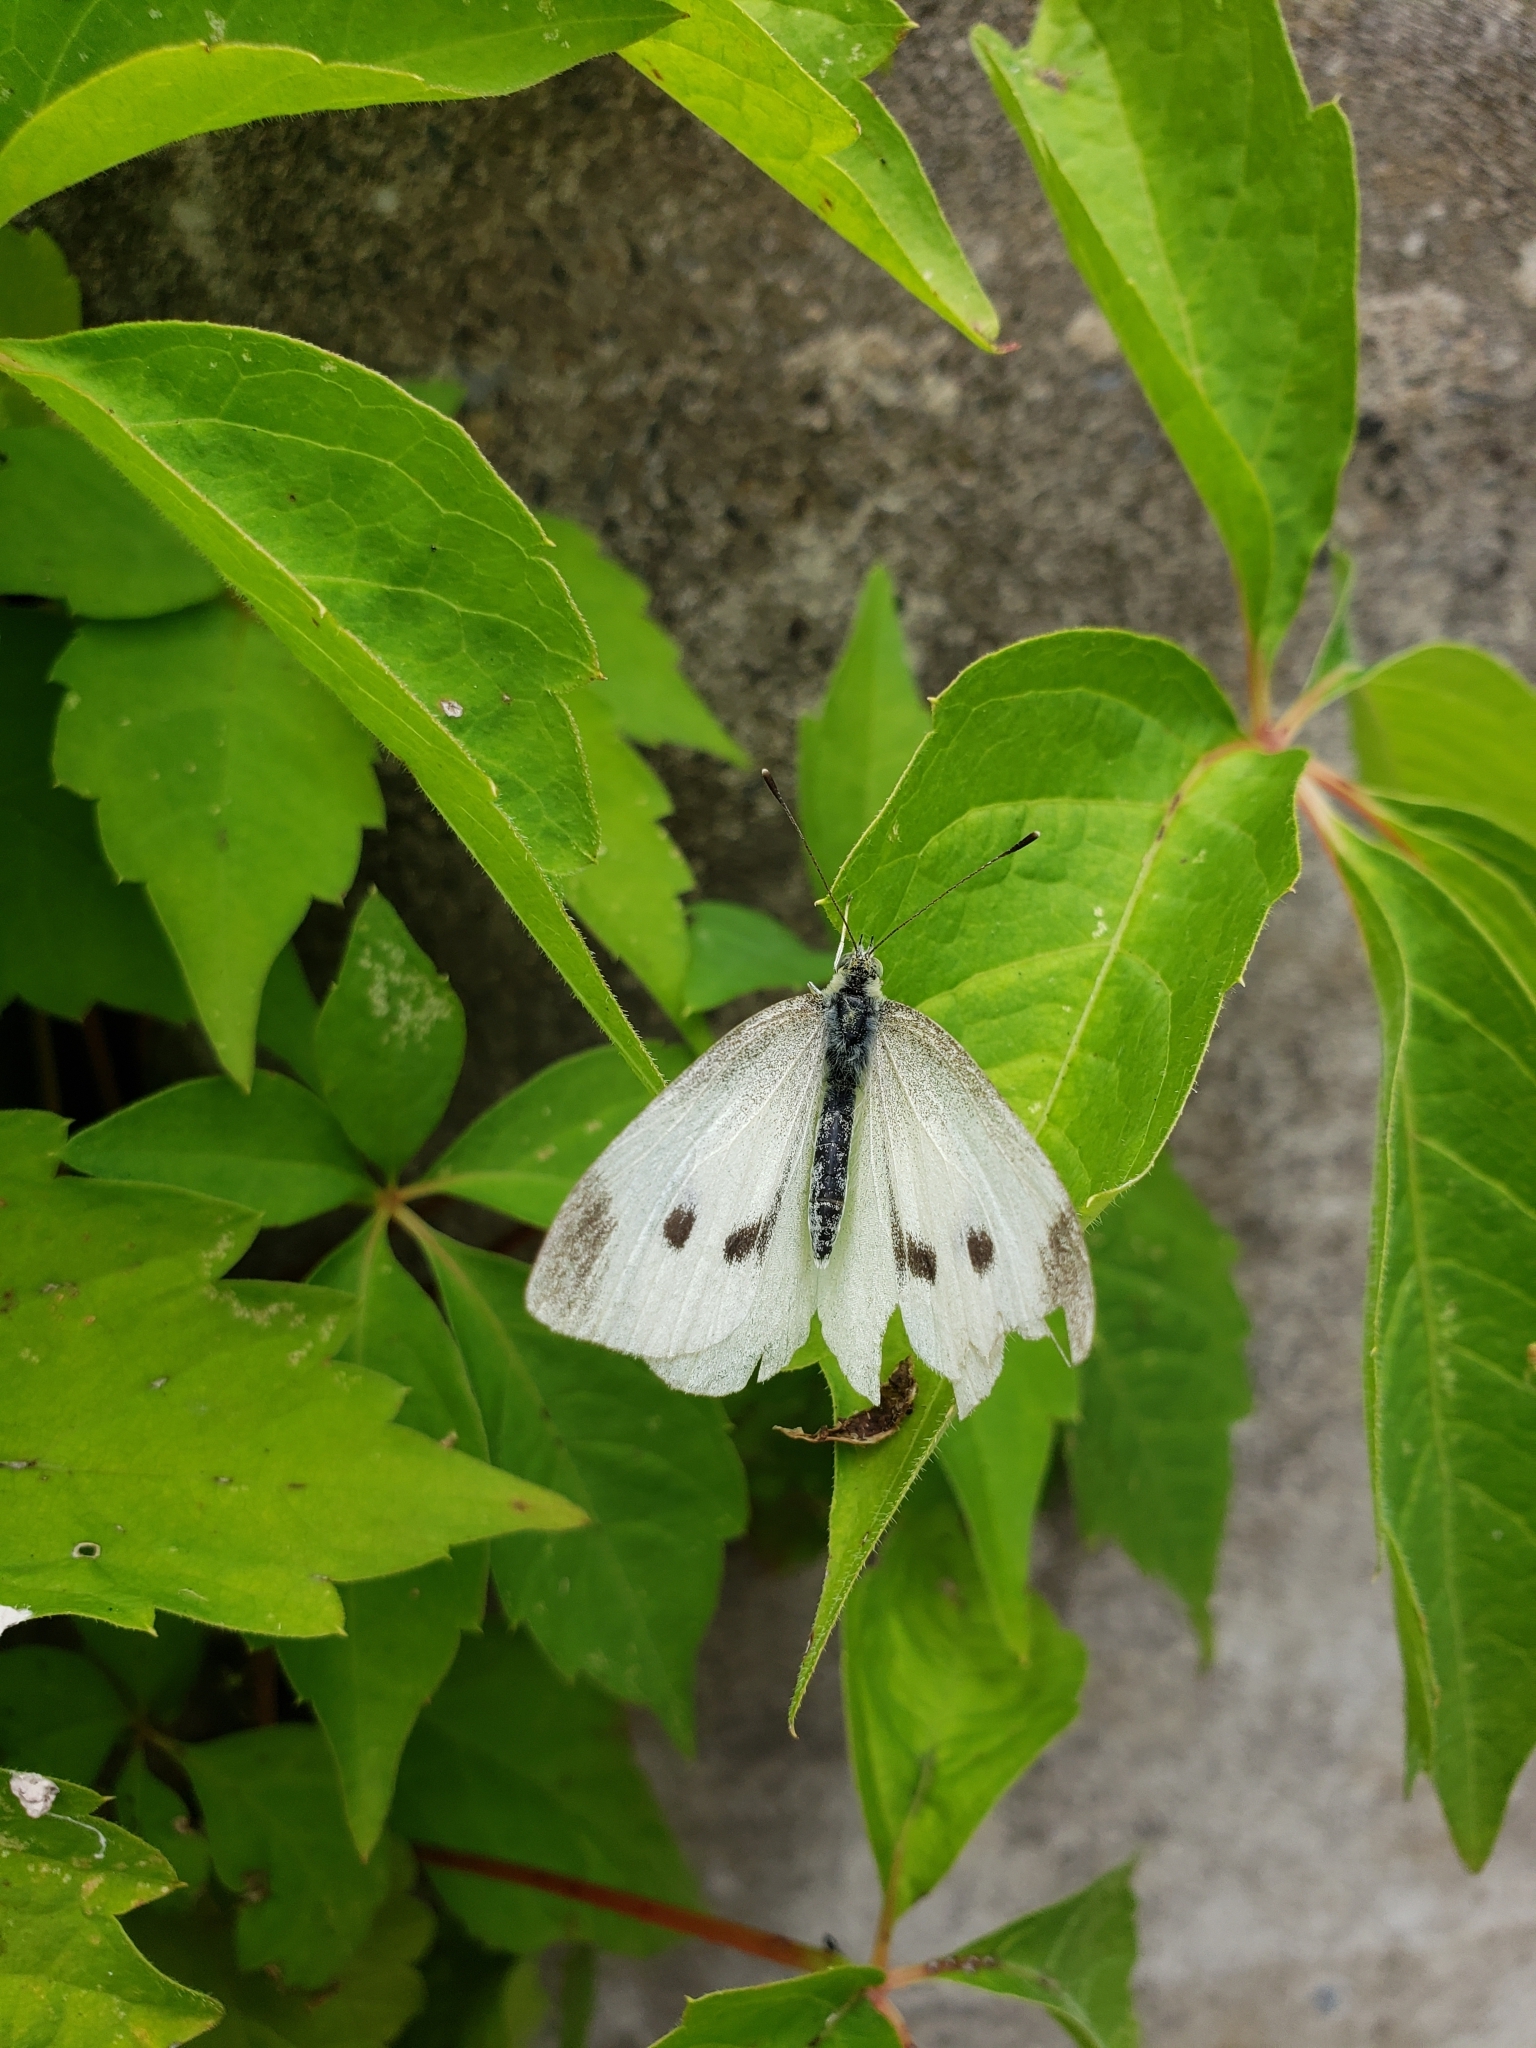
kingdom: Animalia
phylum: Arthropoda
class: Insecta
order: Lepidoptera
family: Pieridae
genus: Pieris
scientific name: Pieris rapae
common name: Small white
